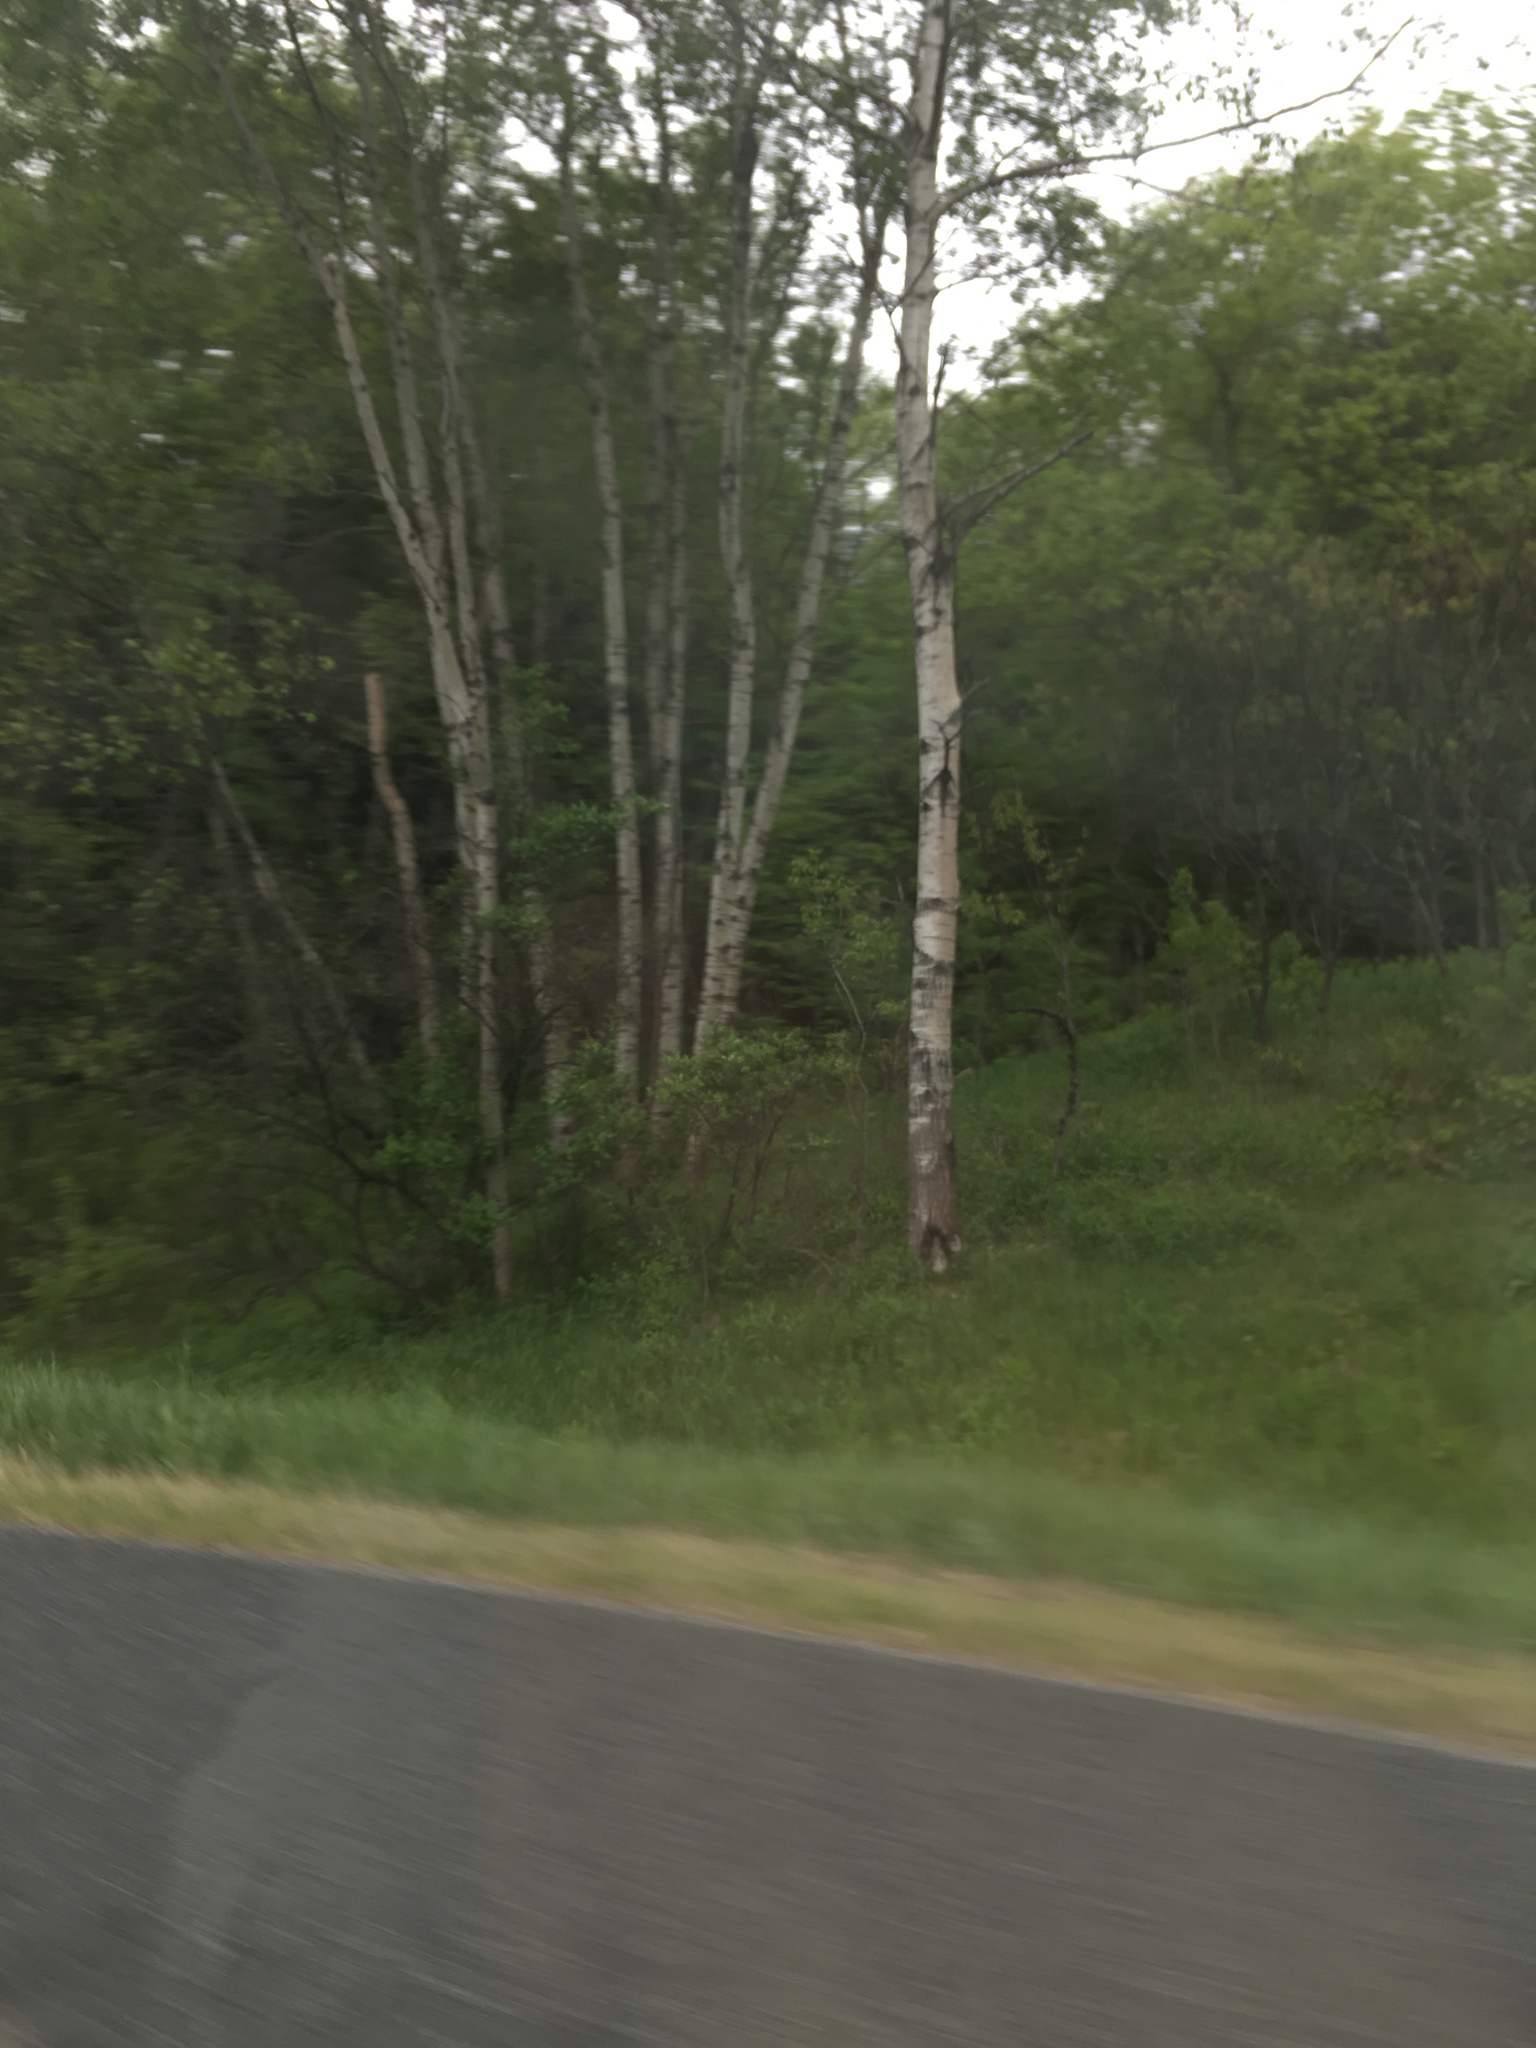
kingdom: Plantae
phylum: Tracheophyta
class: Magnoliopsida
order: Malpighiales
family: Salicaceae
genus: Populus
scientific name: Populus tremuloides
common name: Quaking aspen
